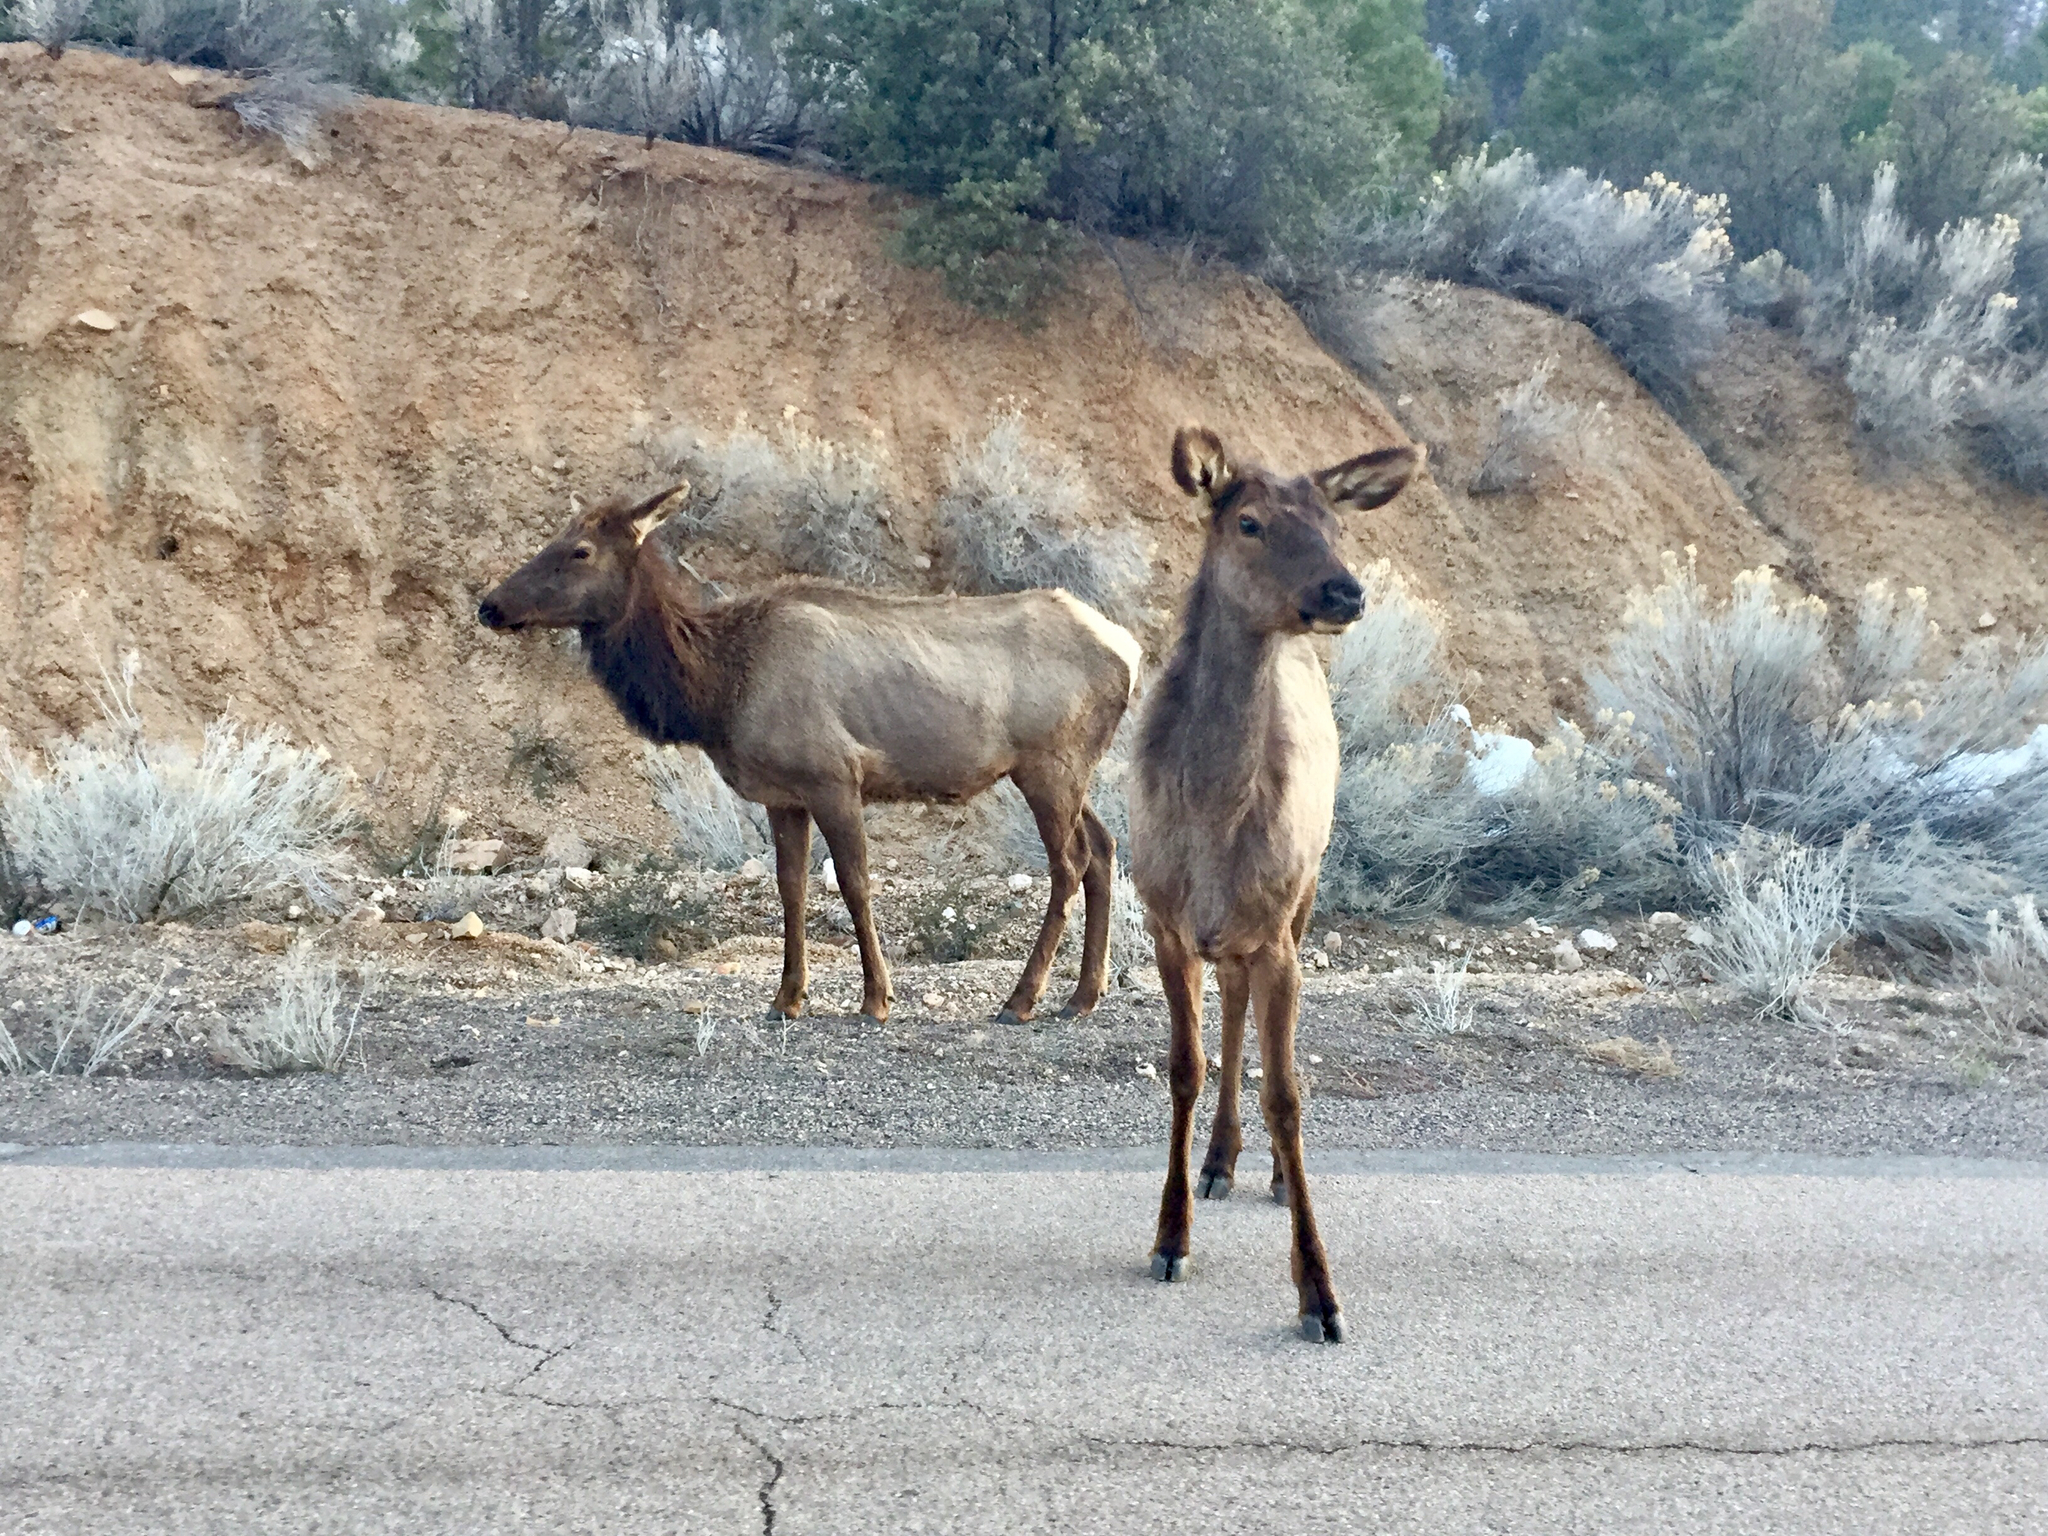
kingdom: Animalia
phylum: Chordata
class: Mammalia
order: Artiodactyla
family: Cervidae
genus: Cervus
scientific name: Cervus elaphus
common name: Red deer
